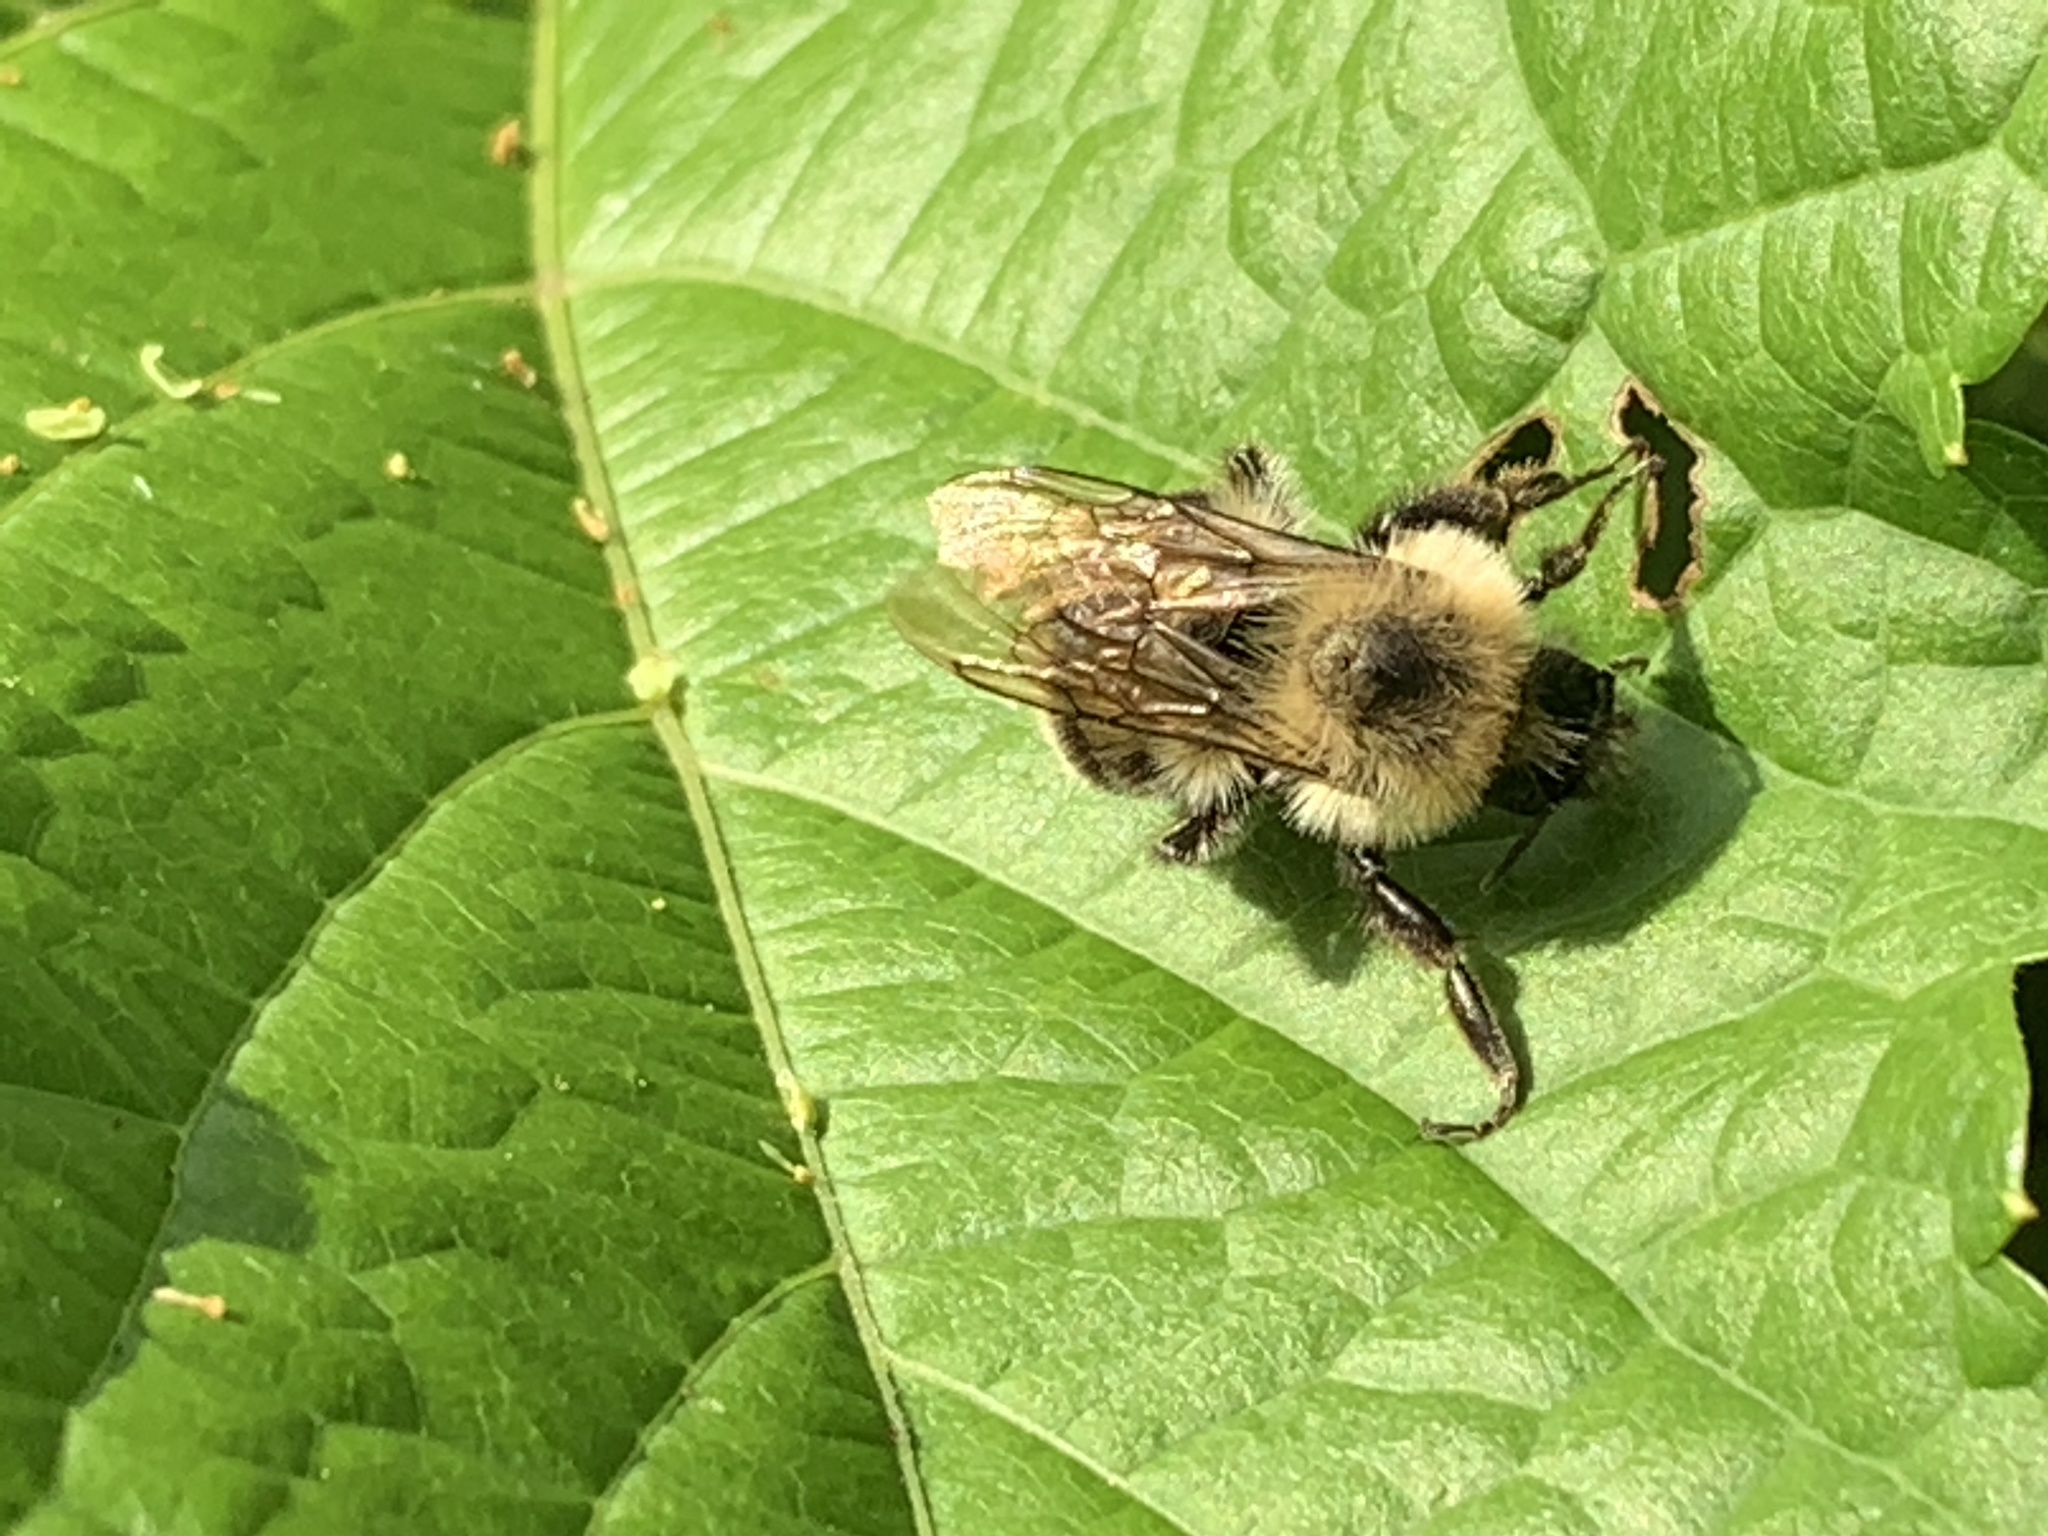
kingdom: Animalia
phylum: Arthropoda
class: Insecta
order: Hymenoptera
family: Apidae
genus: Bombus
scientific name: Bombus bimaculatus
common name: Two-spotted bumble bee
